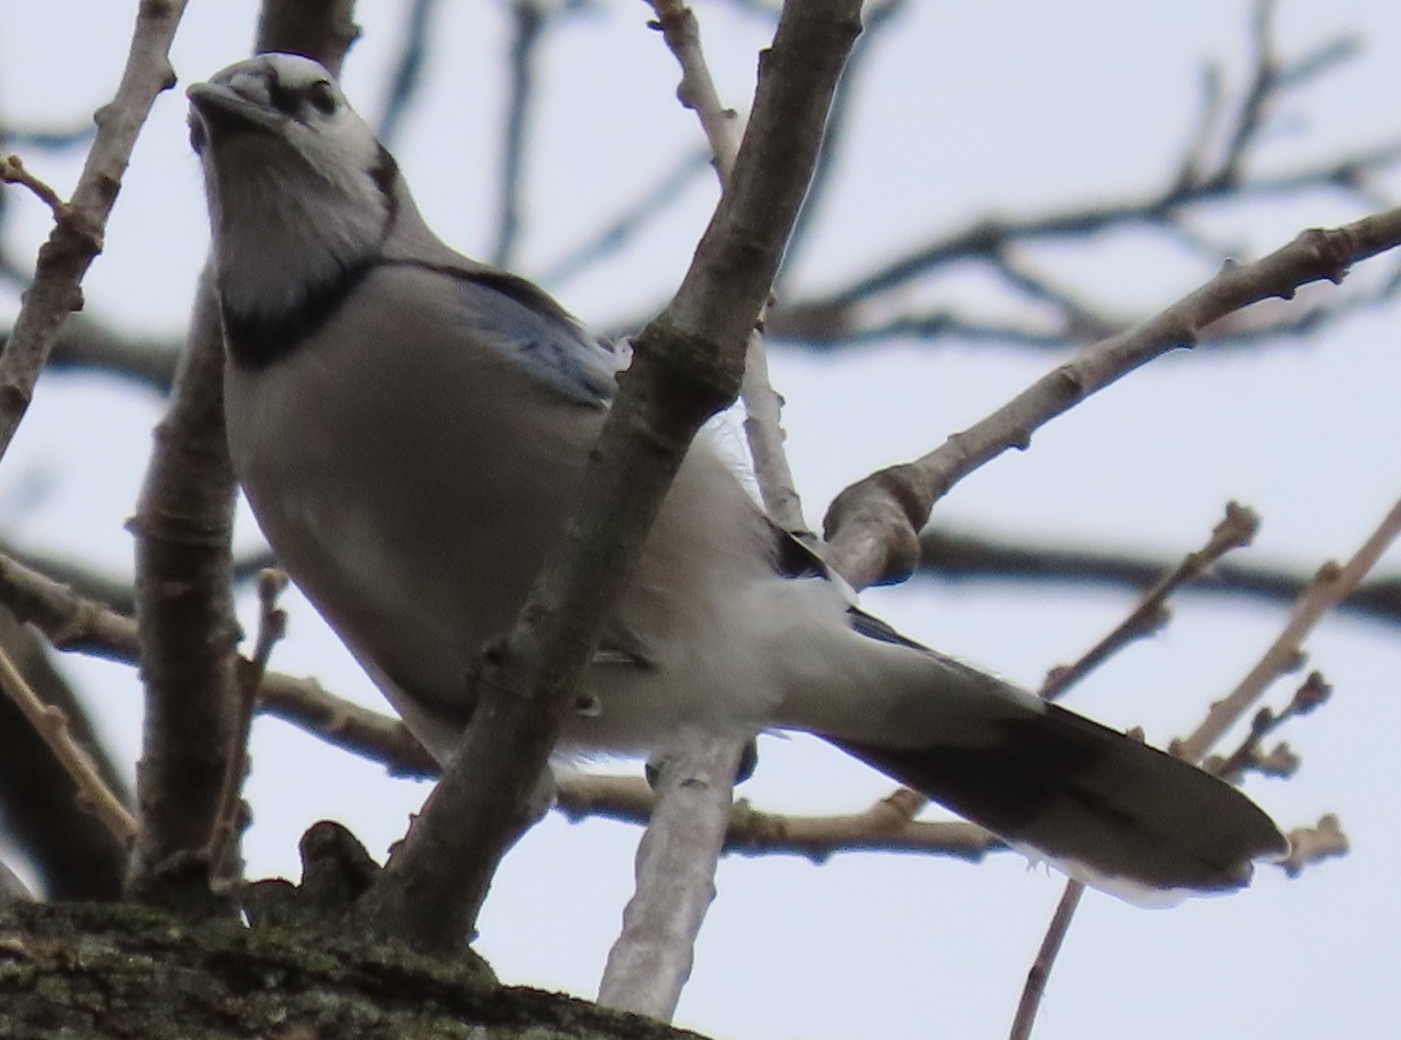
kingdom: Animalia
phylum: Chordata
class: Aves
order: Passeriformes
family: Corvidae
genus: Cyanocitta
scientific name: Cyanocitta cristata
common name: Blue jay
